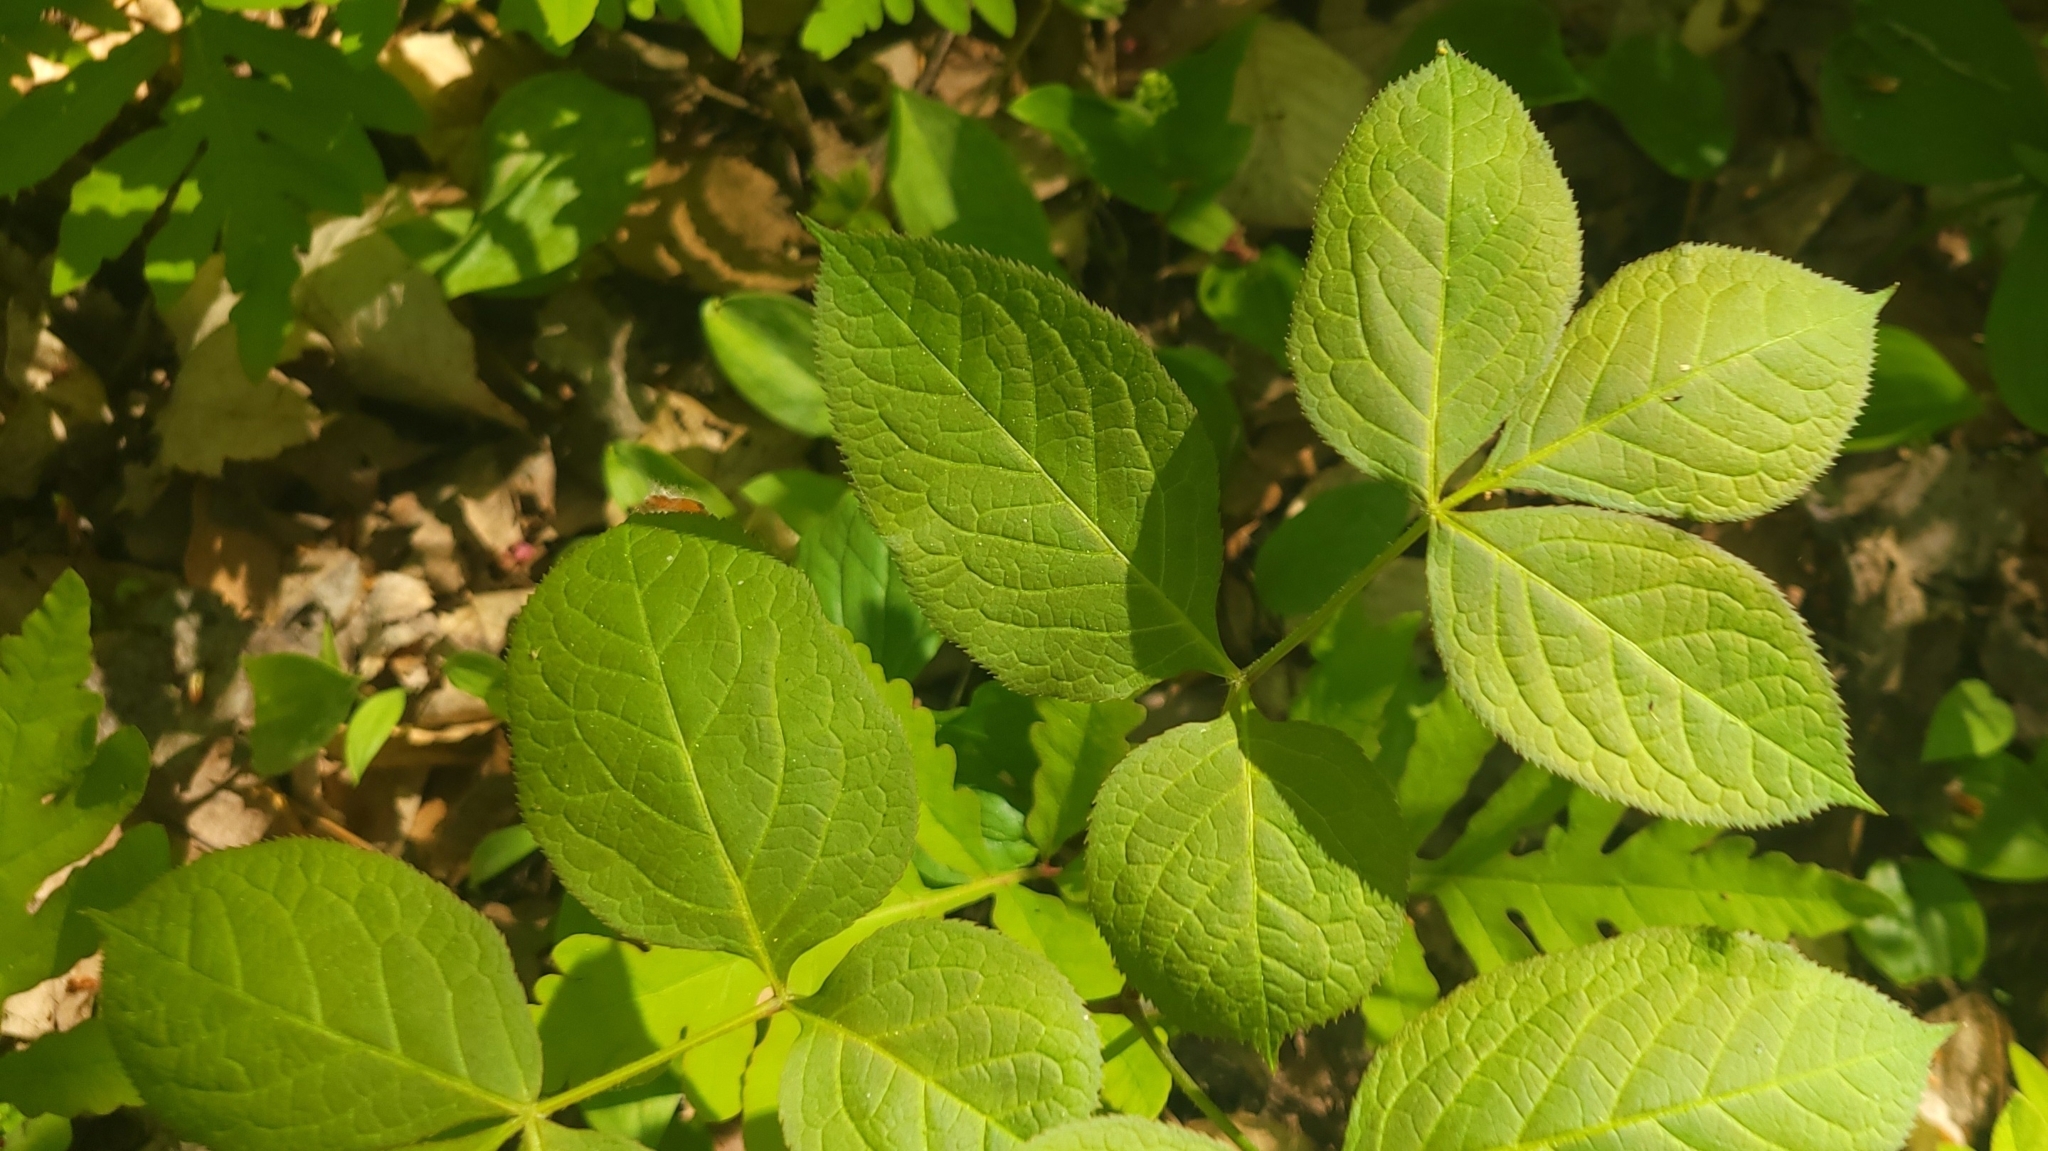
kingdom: Plantae
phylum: Tracheophyta
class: Magnoliopsida
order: Apiales
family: Araliaceae
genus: Aralia
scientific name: Aralia nudicaulis
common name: Wild sarsaparilla
